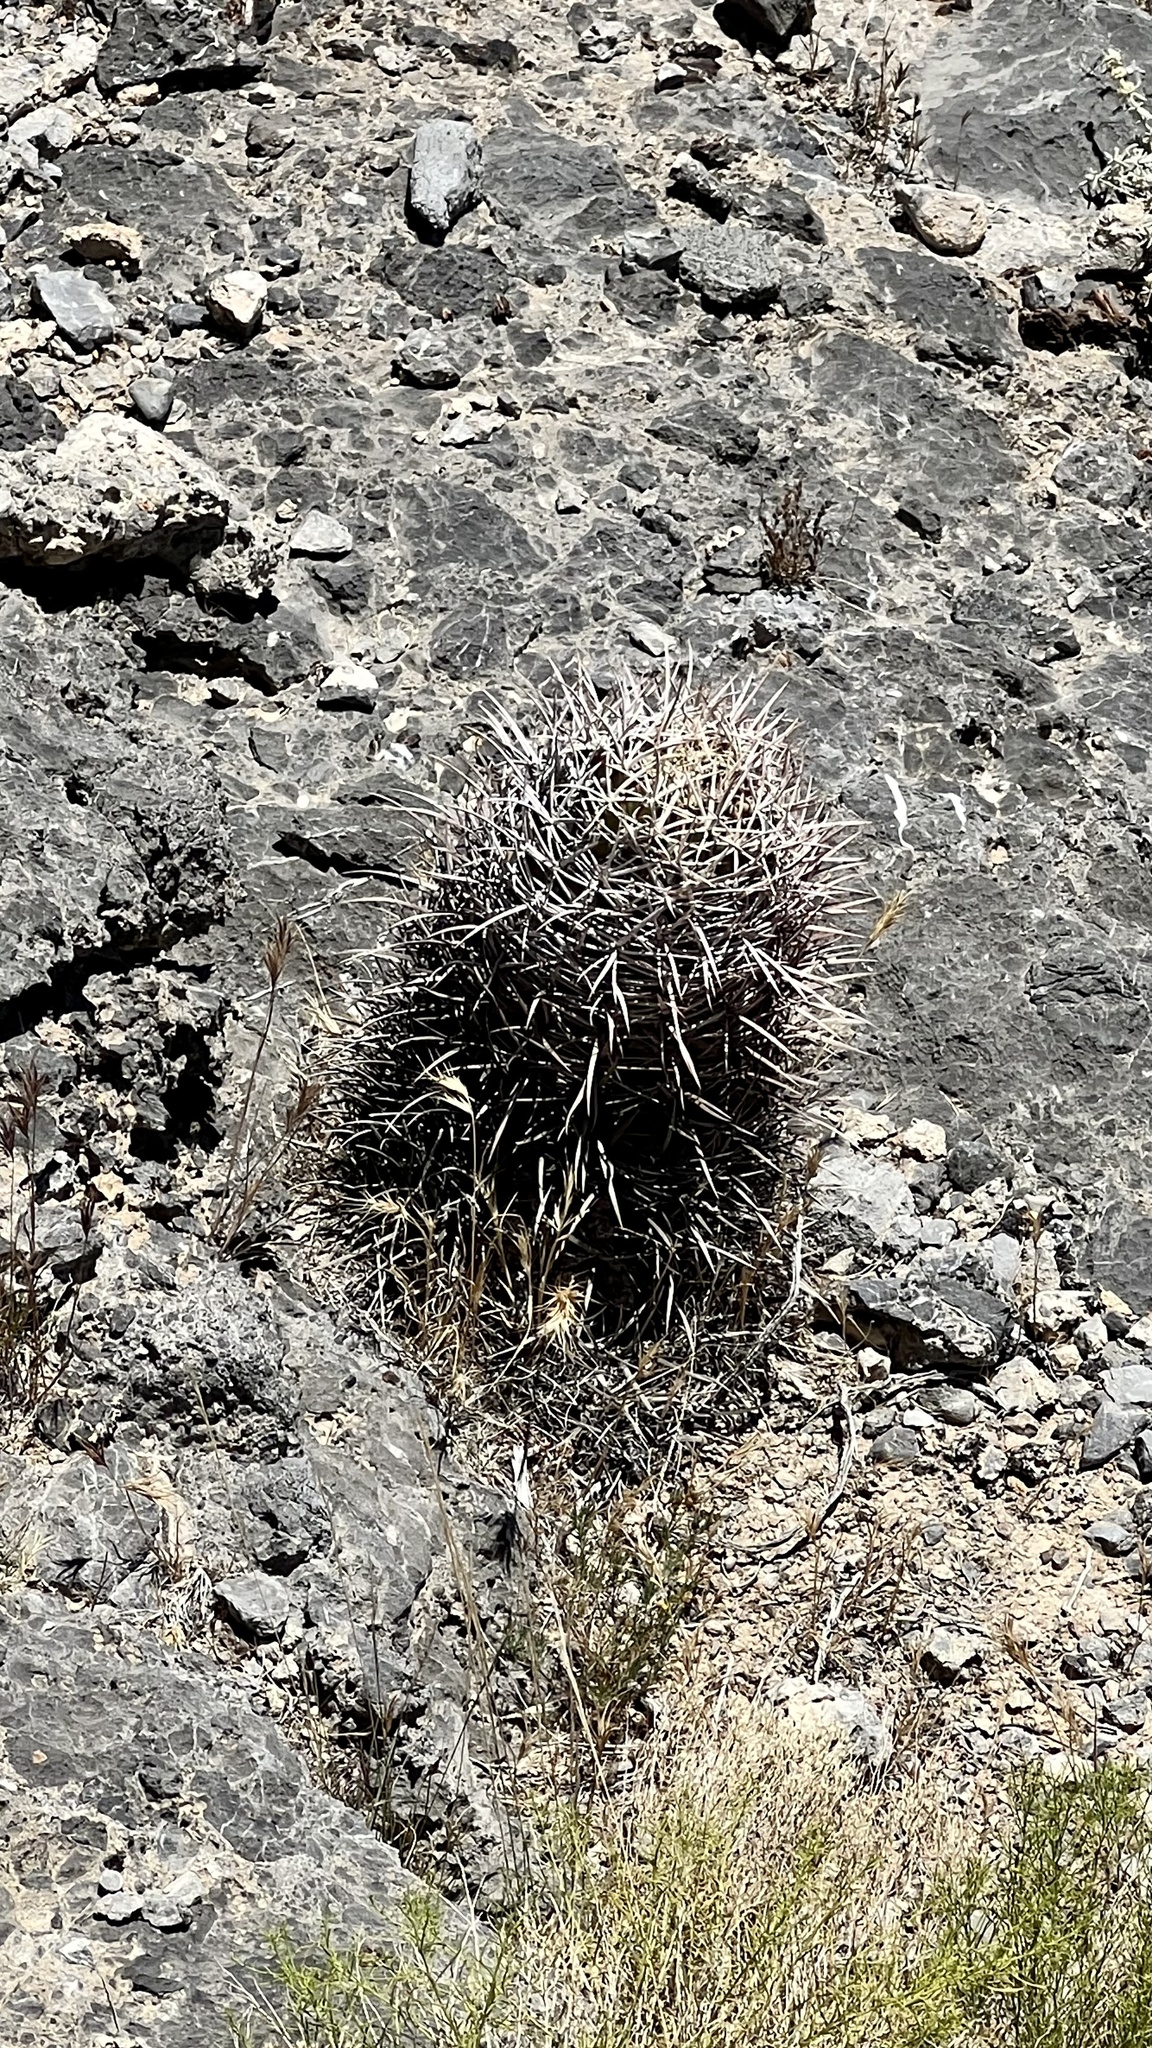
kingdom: Plantae
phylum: Tracheophyta
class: Magnoliopsida
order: Caryophyllales
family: Cactaceae
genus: Echinocactus
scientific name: Echinocactus polycephalus
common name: Cottontop cactus
